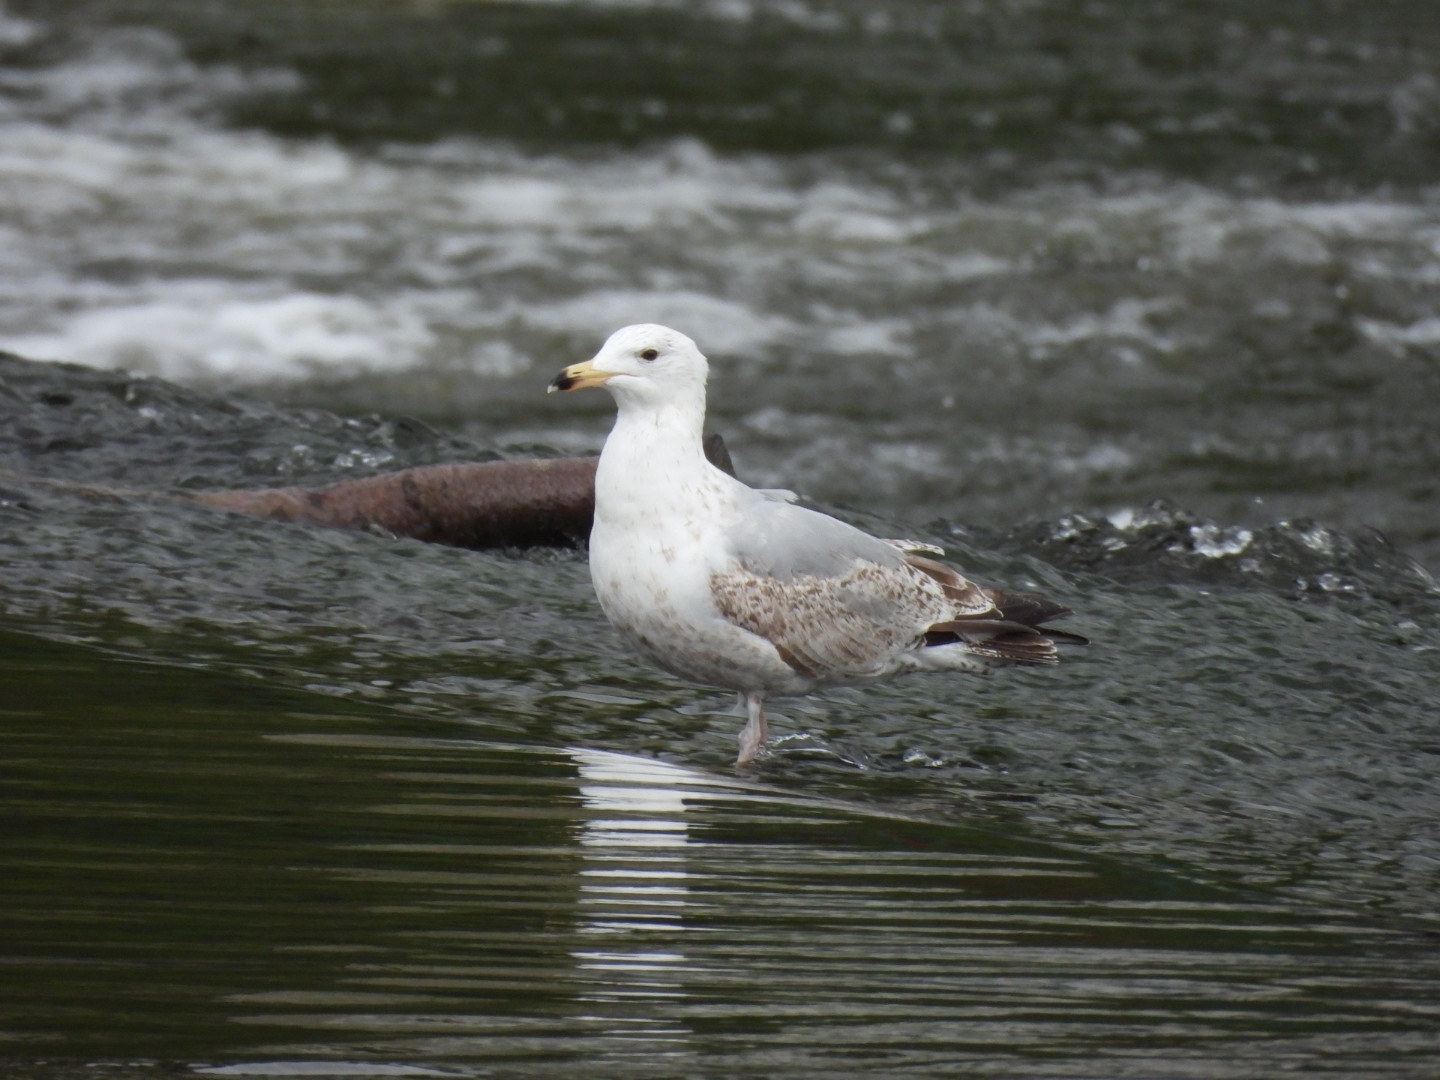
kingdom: Animalia
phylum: Chordata
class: Aves
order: Charadriiformes
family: Laridae
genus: Larus
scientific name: Larus argentatus
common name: Herring gull
